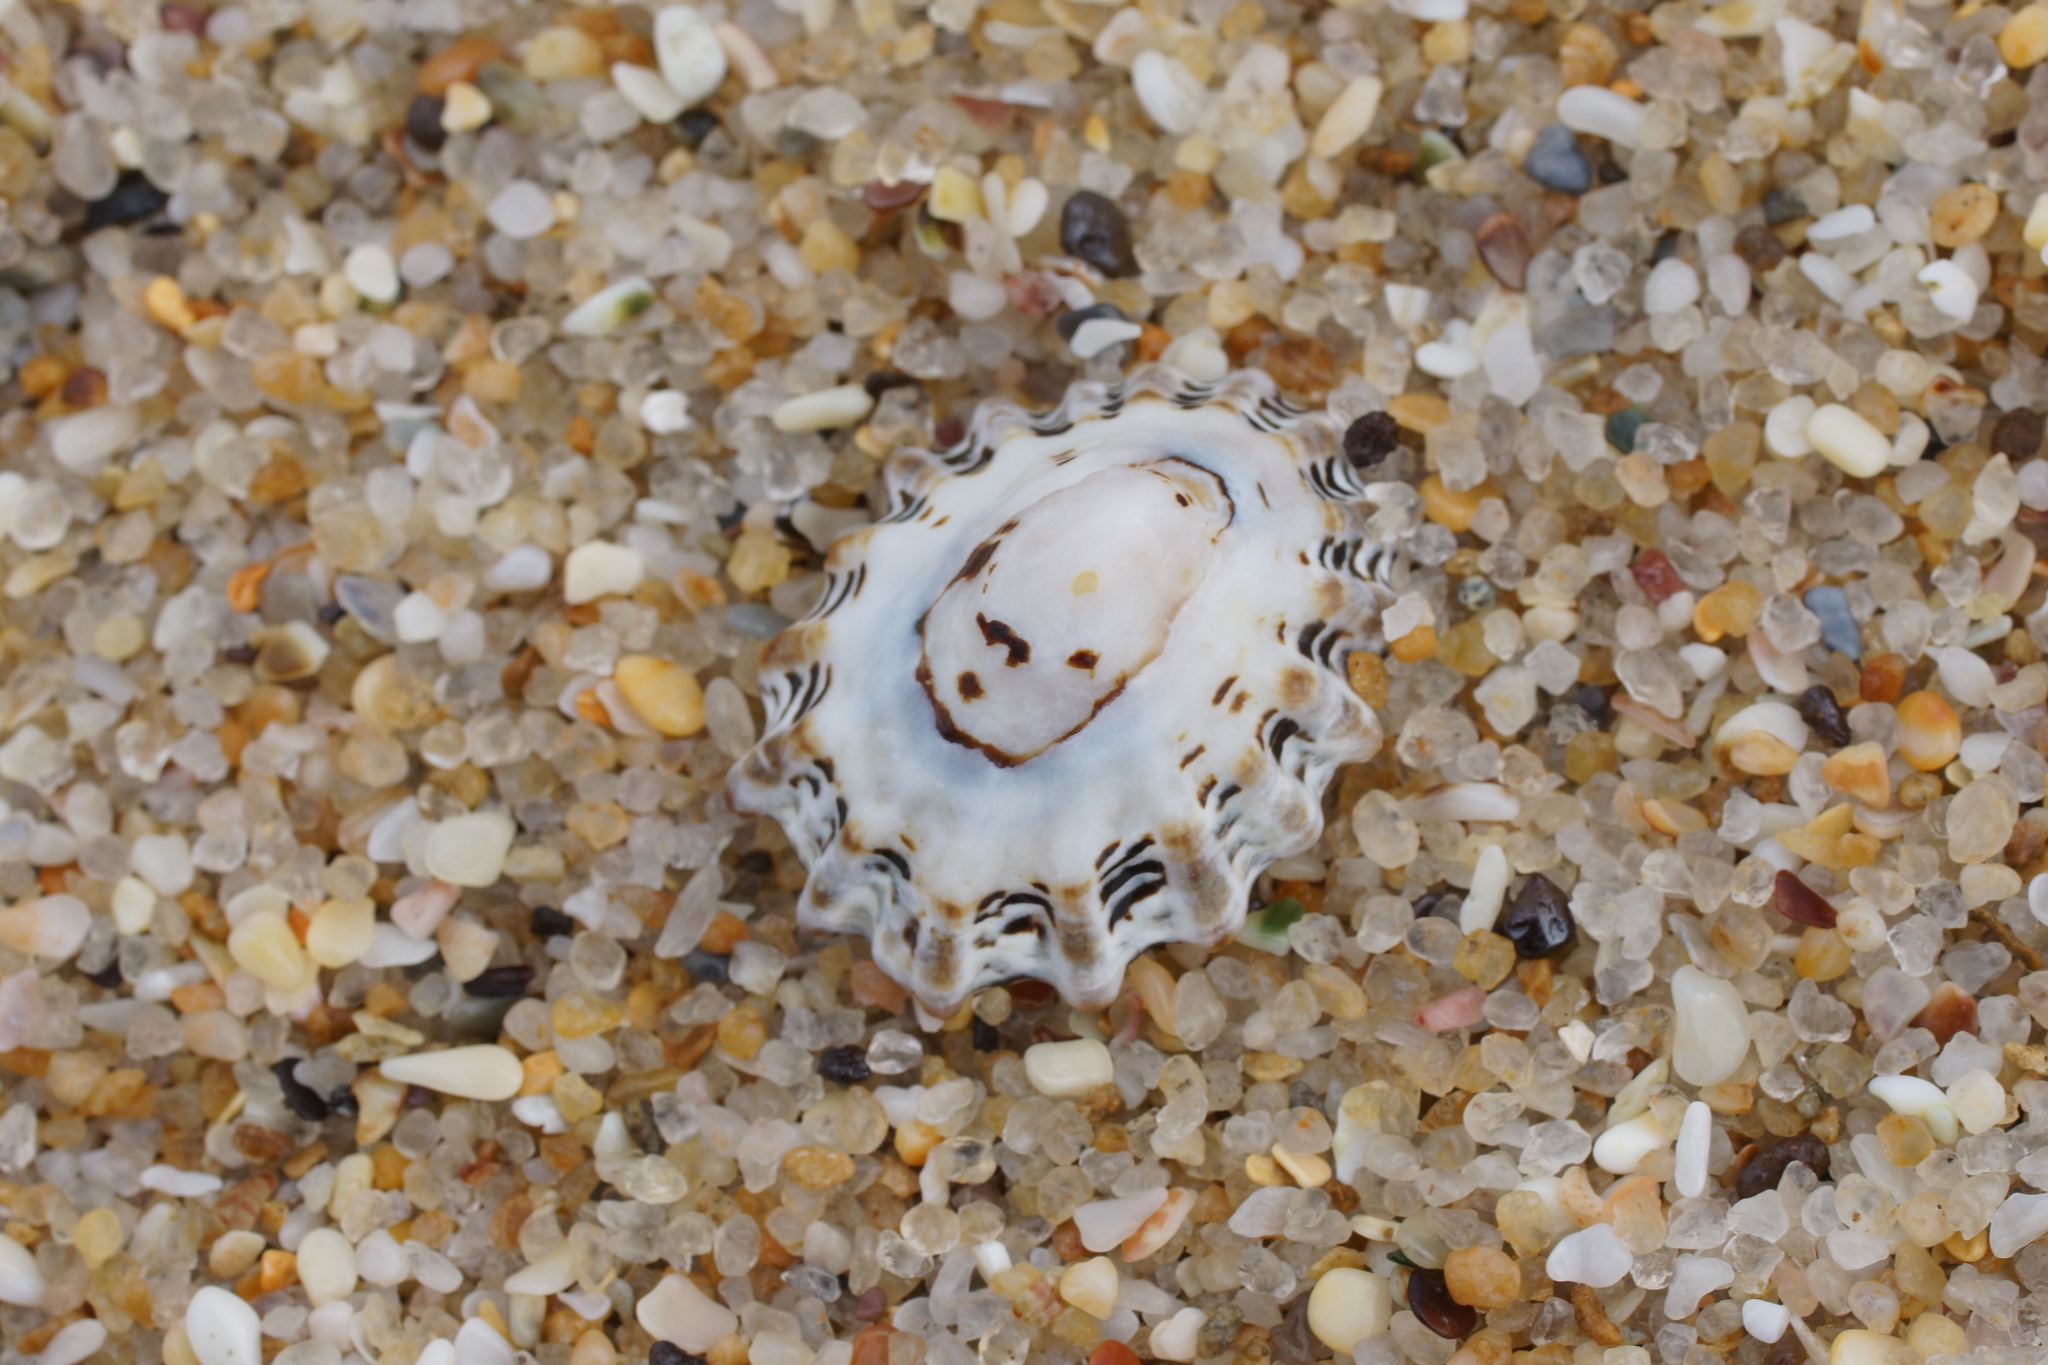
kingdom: Animalia
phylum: Mollusca
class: Gastropoda
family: Lottiidae
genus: Patelloida
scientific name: Patelloida alticostata
